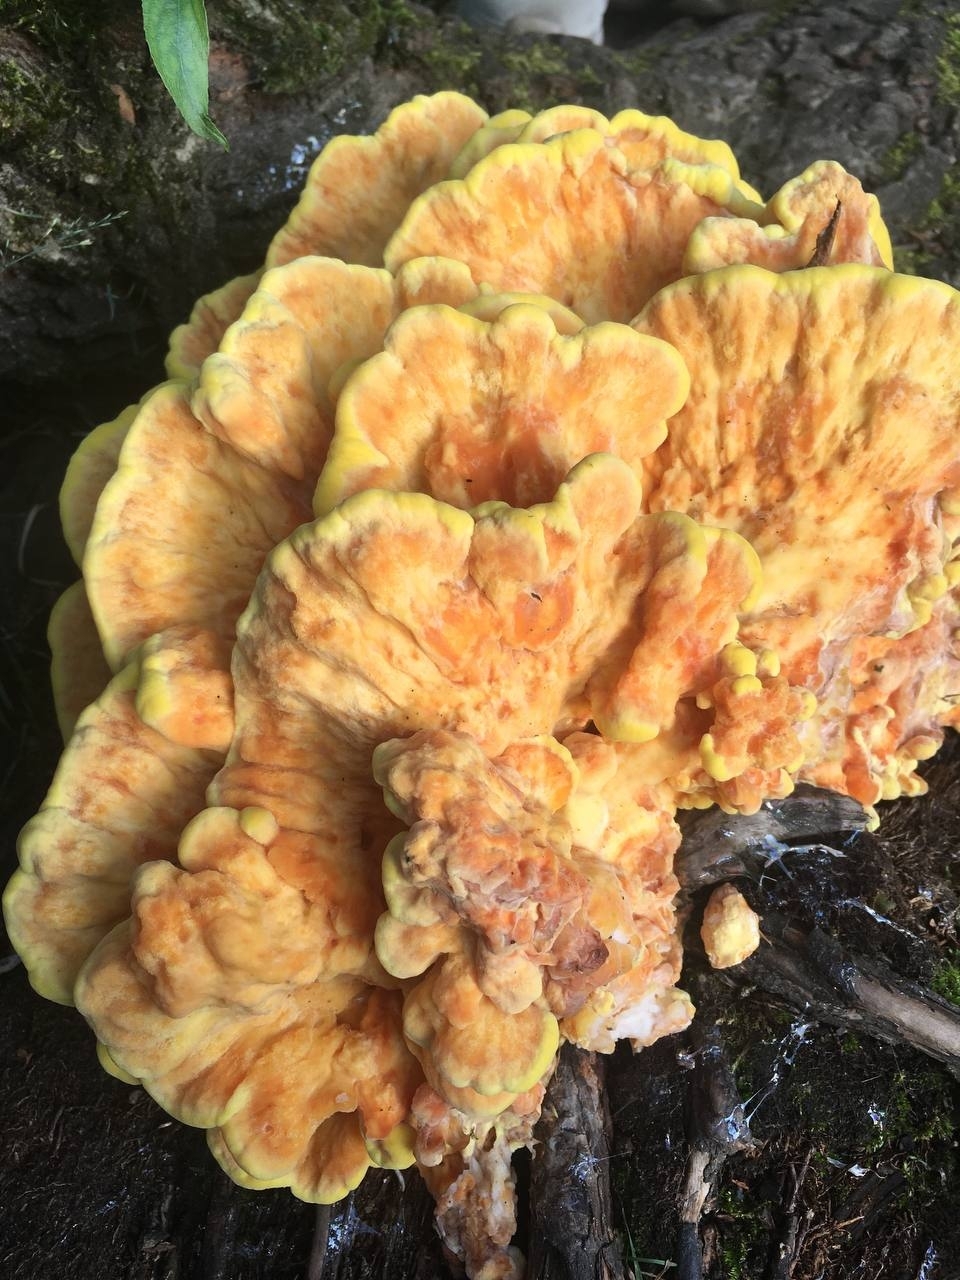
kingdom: Fungi
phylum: Basidiomycota
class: Agaricomycetes
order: Polyporales
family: Laetiporaceae
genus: Laetiporus
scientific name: Laetiporus sulphureus
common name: Chicken of the woods
